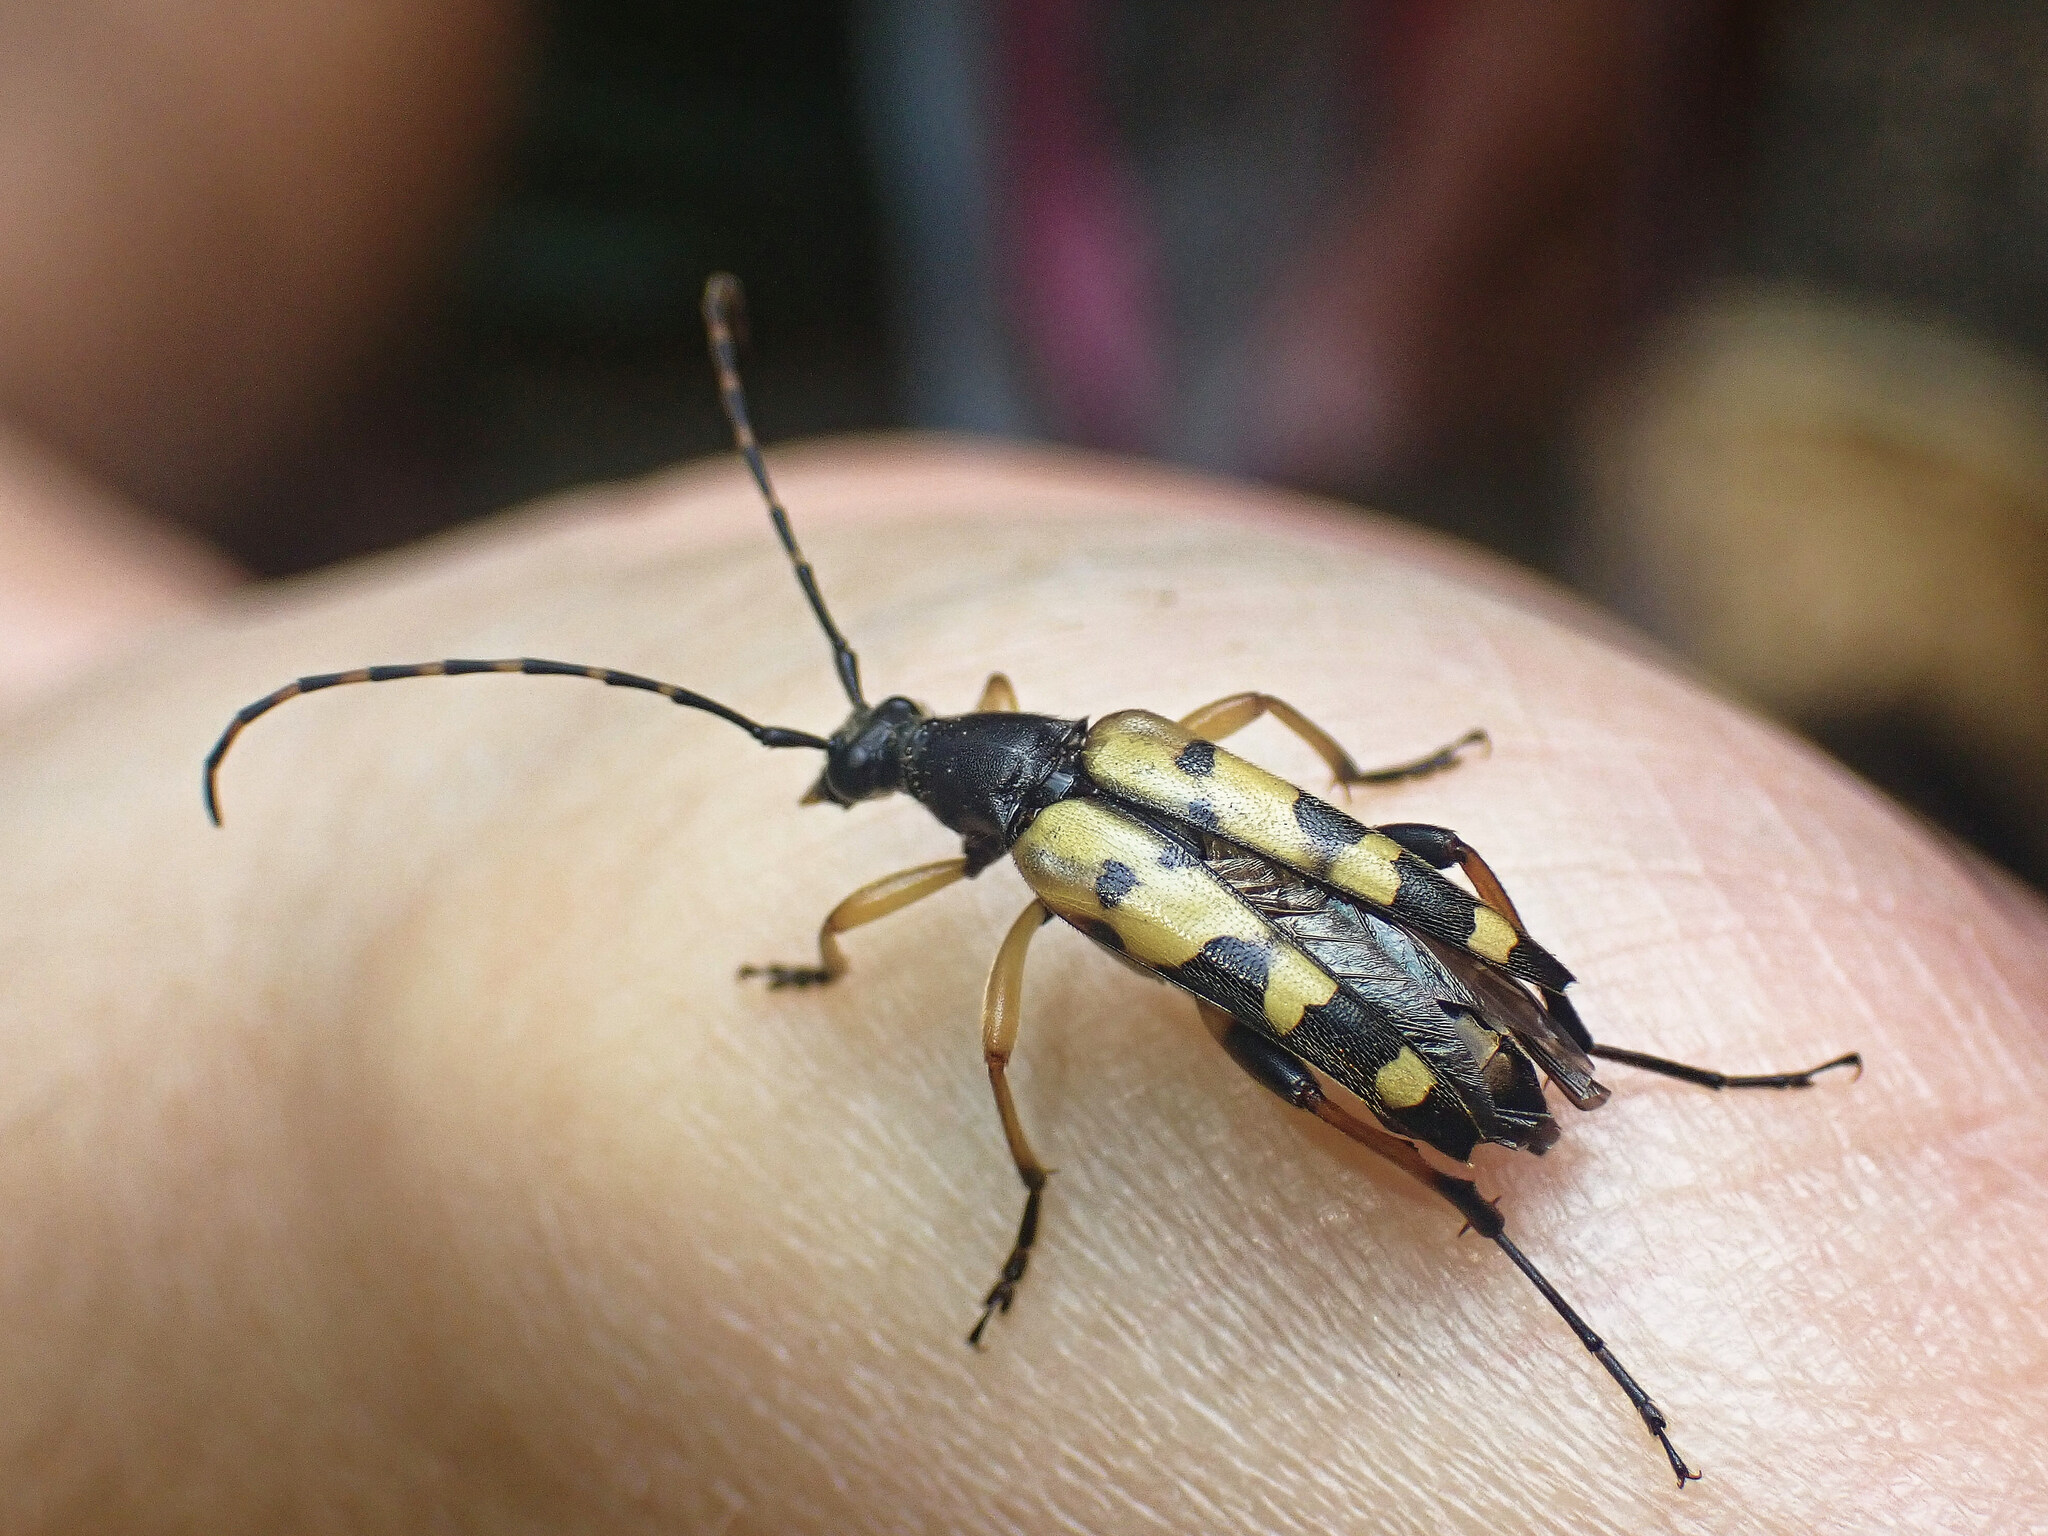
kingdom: Animalia
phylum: Arthropoda
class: Insecta
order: Coleoptera
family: Cerambycidae
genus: Rutpela
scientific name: Rutpela maculata
